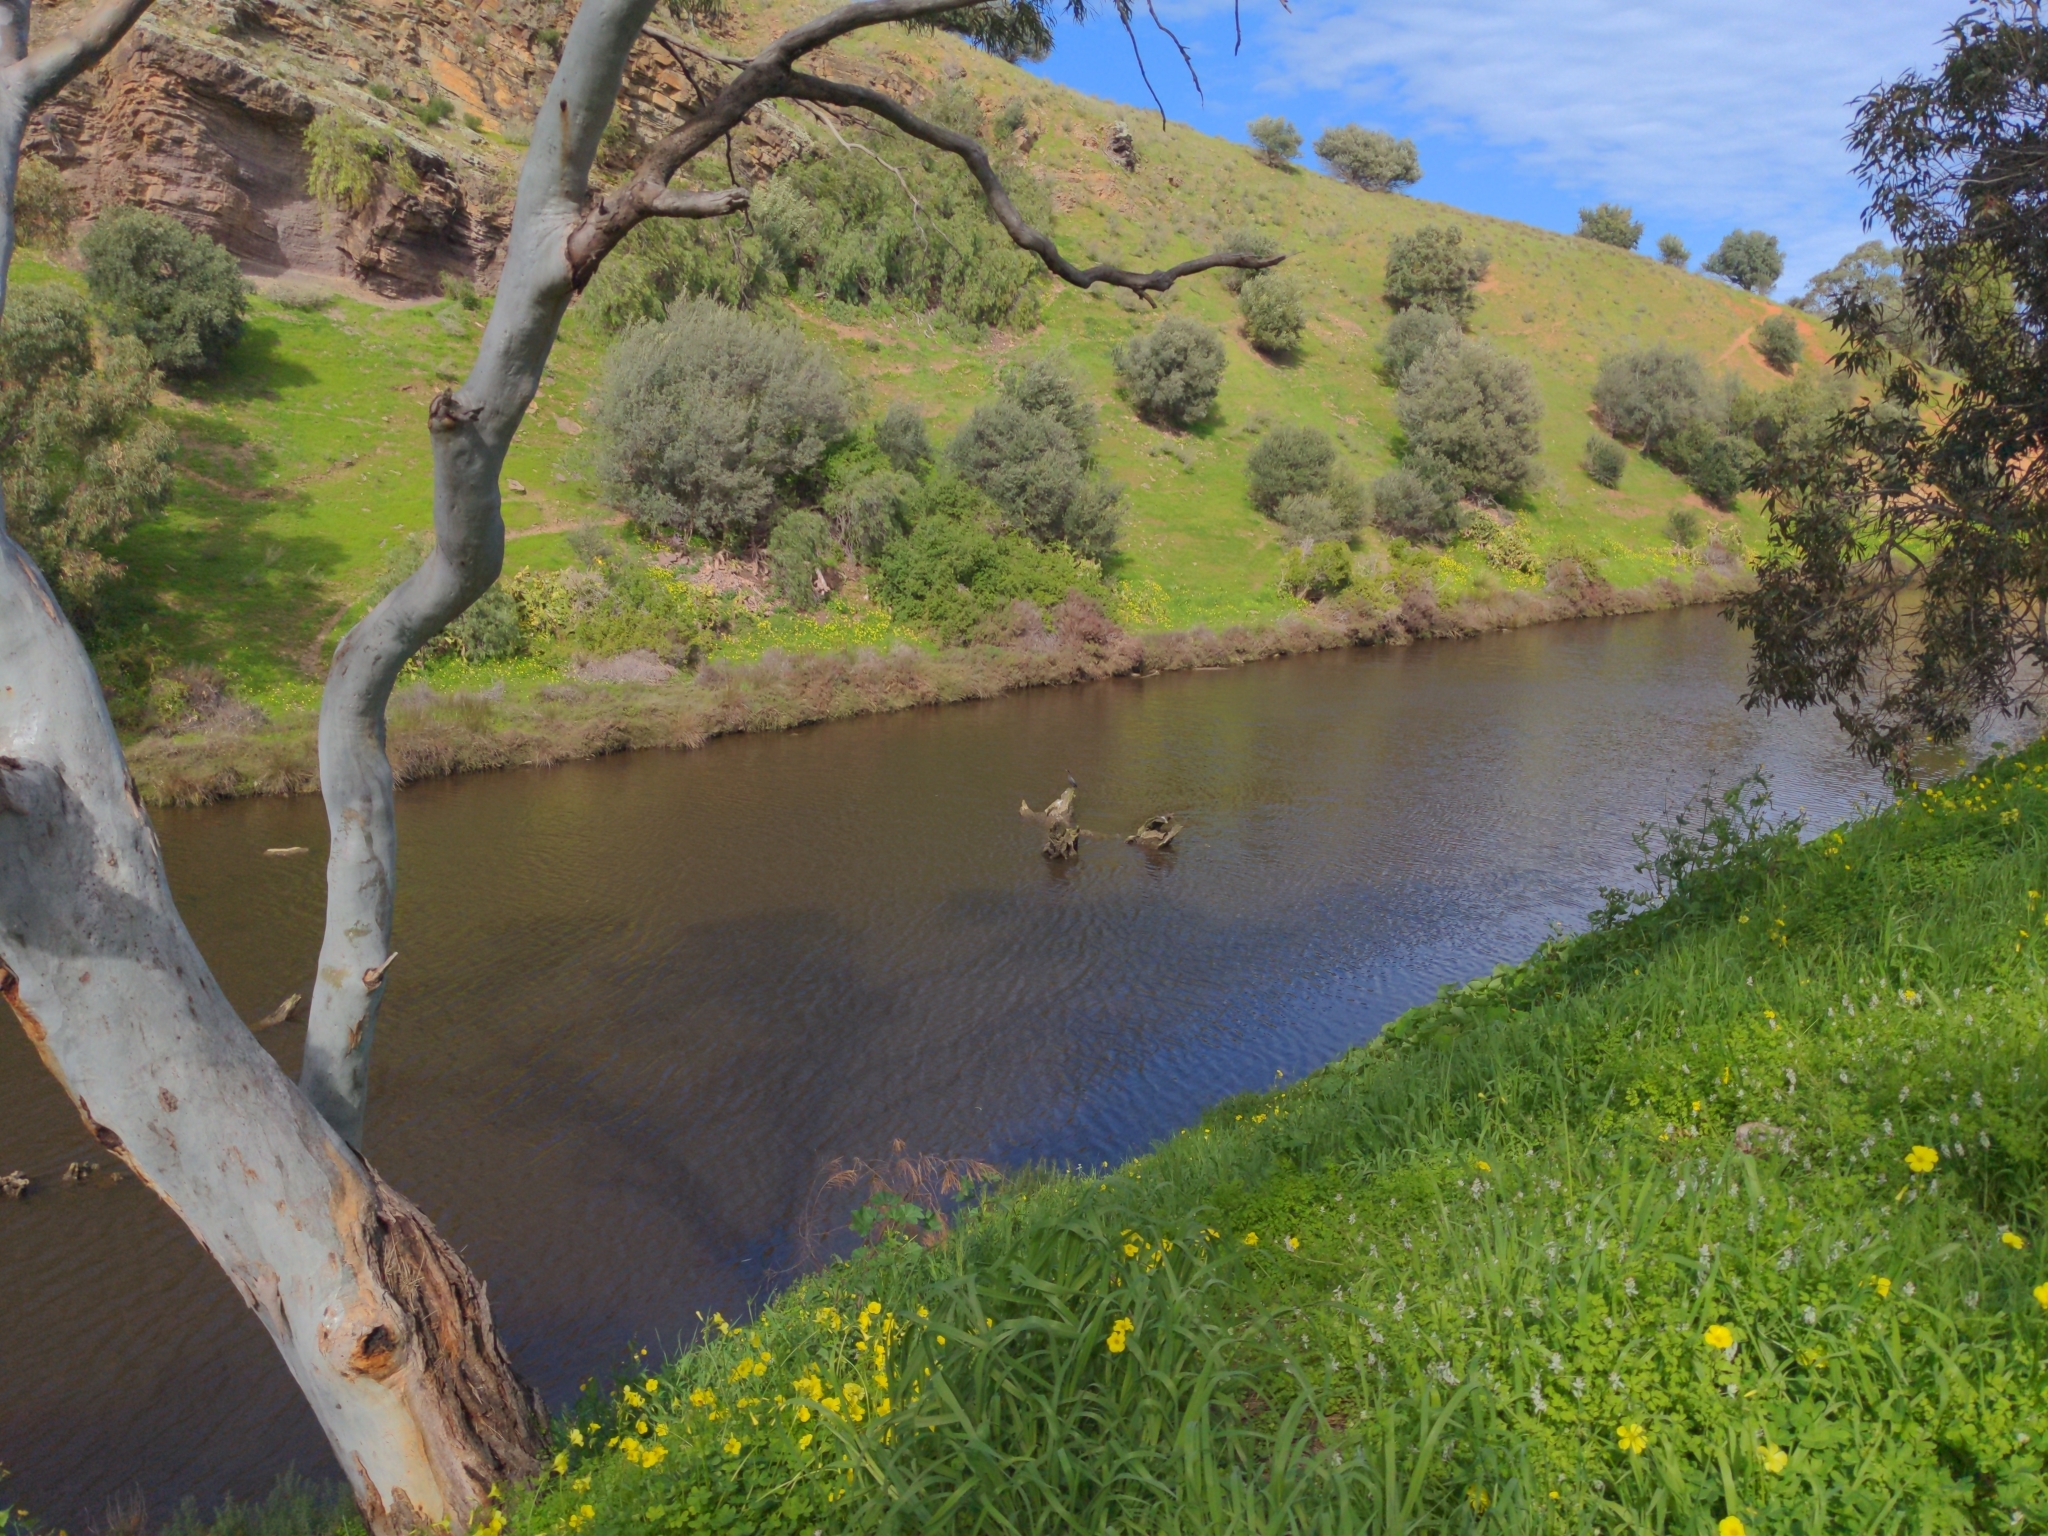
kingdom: Animalia
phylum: Chordata
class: Aves
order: Suliformes
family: Phalacrocoracidae
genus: Phalacrocorax
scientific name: Phalacrocorax sulcirostris
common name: Little black cormorant
